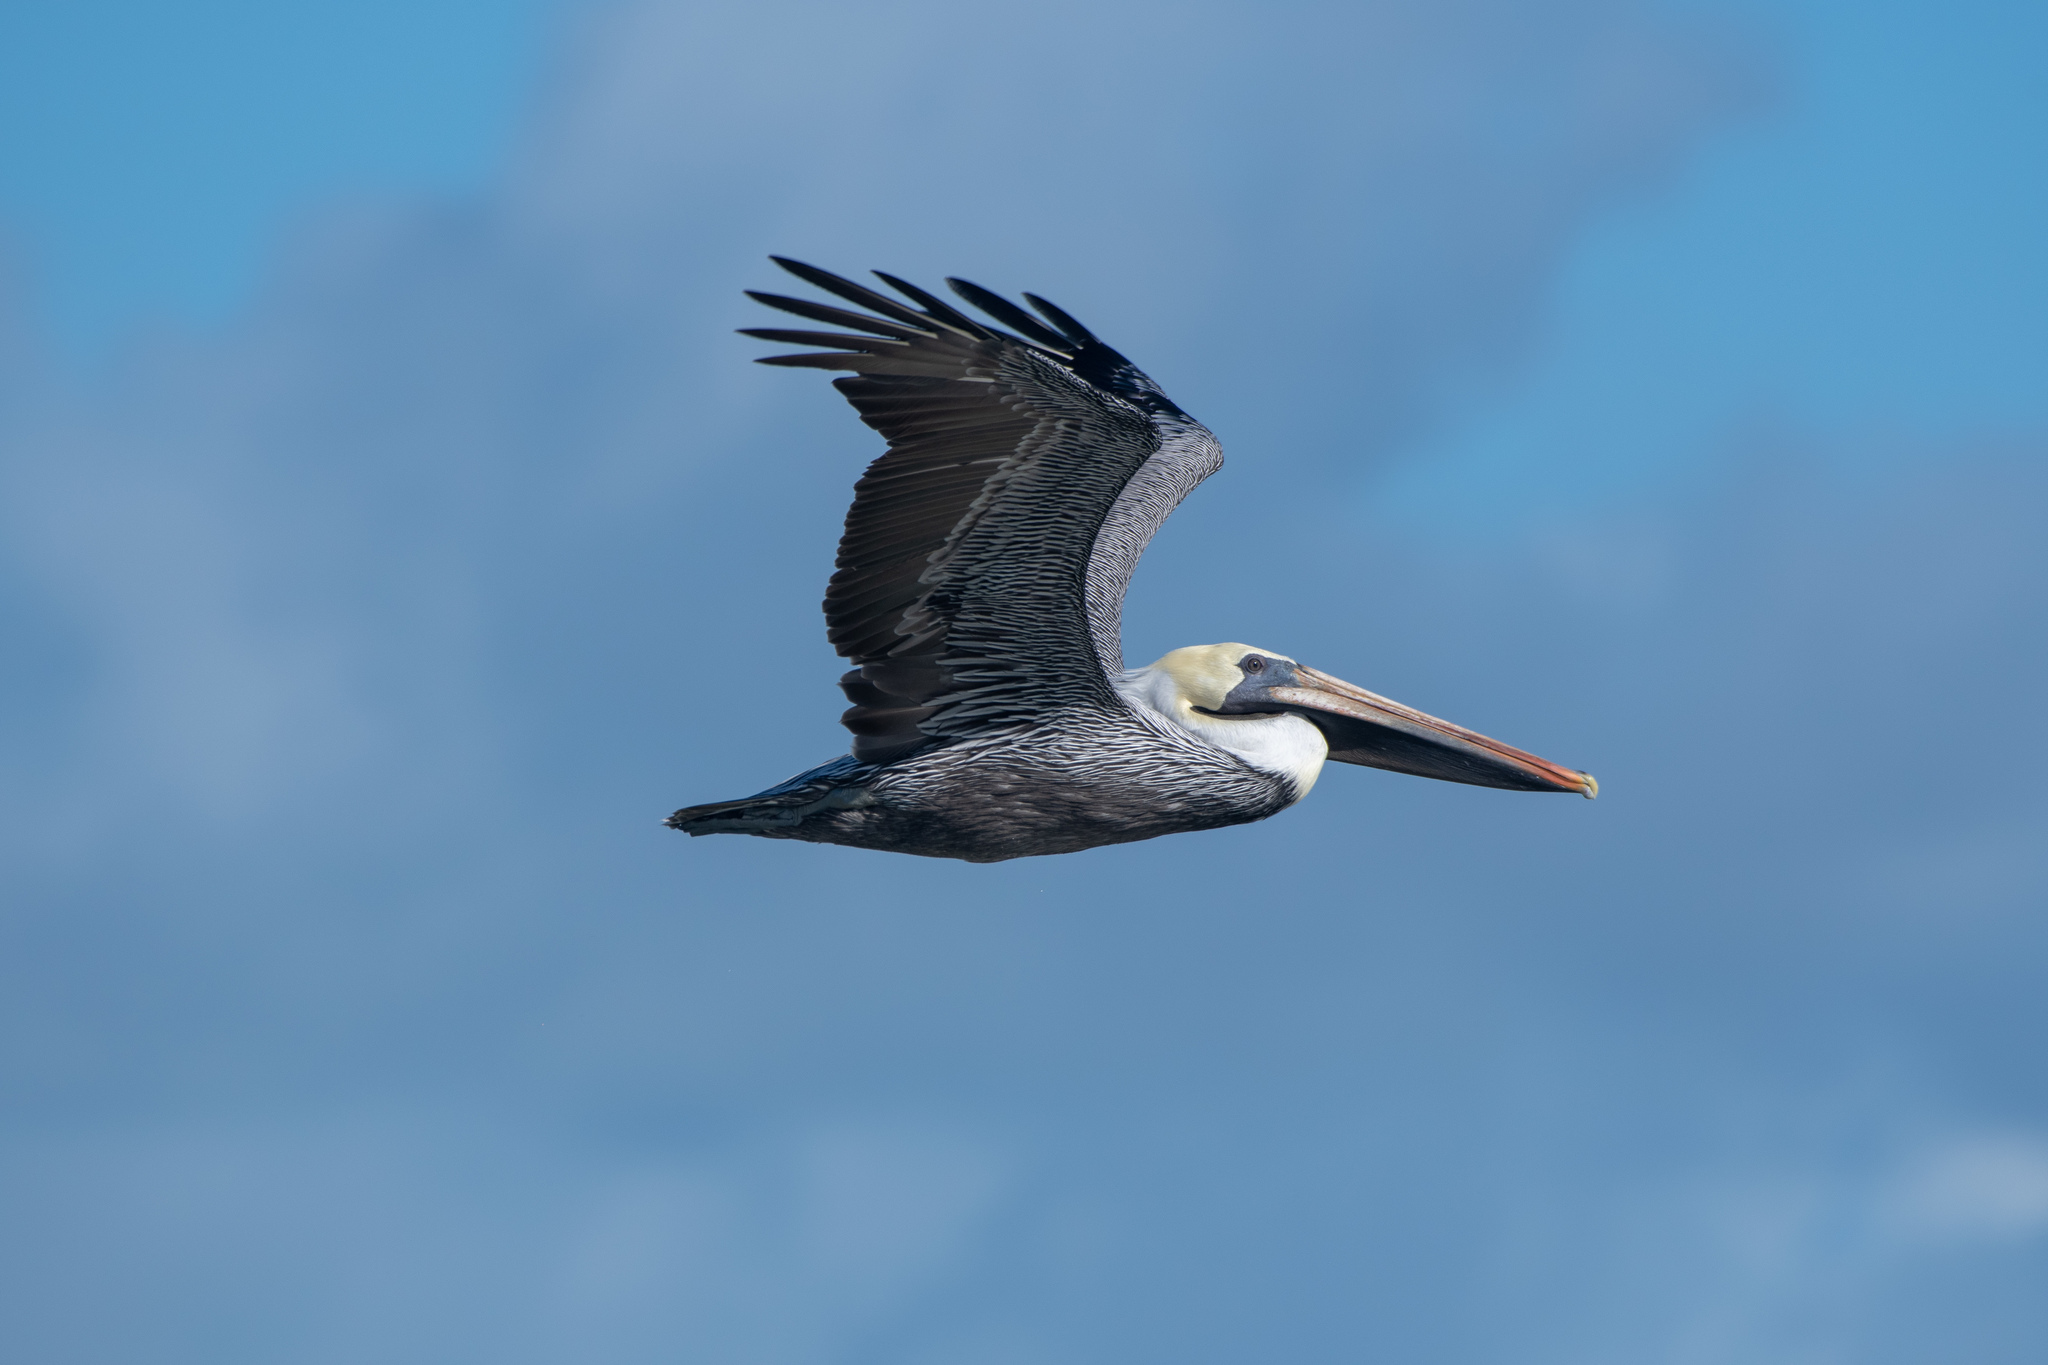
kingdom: Animalia
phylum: Chordata
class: Aves
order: Pelecaniformes
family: Pelecanidae
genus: Pelecanus
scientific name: Pelecanus occidentalis
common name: Brown pelican
